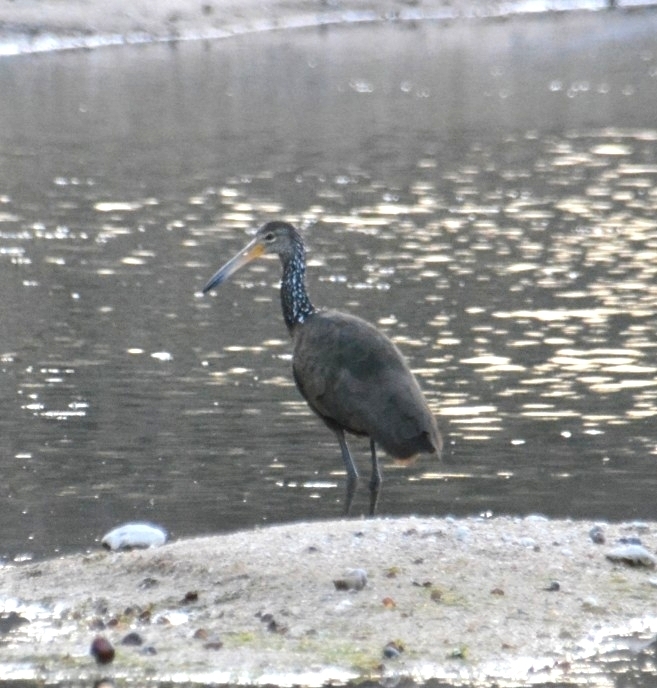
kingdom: Animalia
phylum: Chordata
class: Aves
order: Gruiformes
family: Aramidae
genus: Aramus
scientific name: Aramus guarauna
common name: Limpkin
